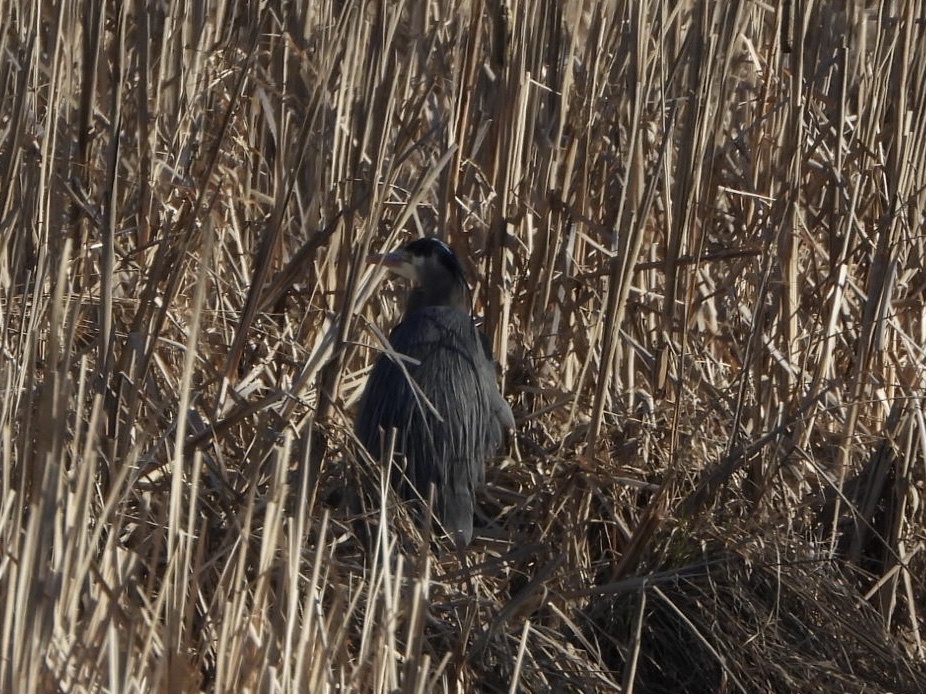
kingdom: Animalia
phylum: Chordata
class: Aves
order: Pelecaniformes
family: Ardeidae
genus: Ardea
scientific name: Ardea herodias
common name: Great blue heron
